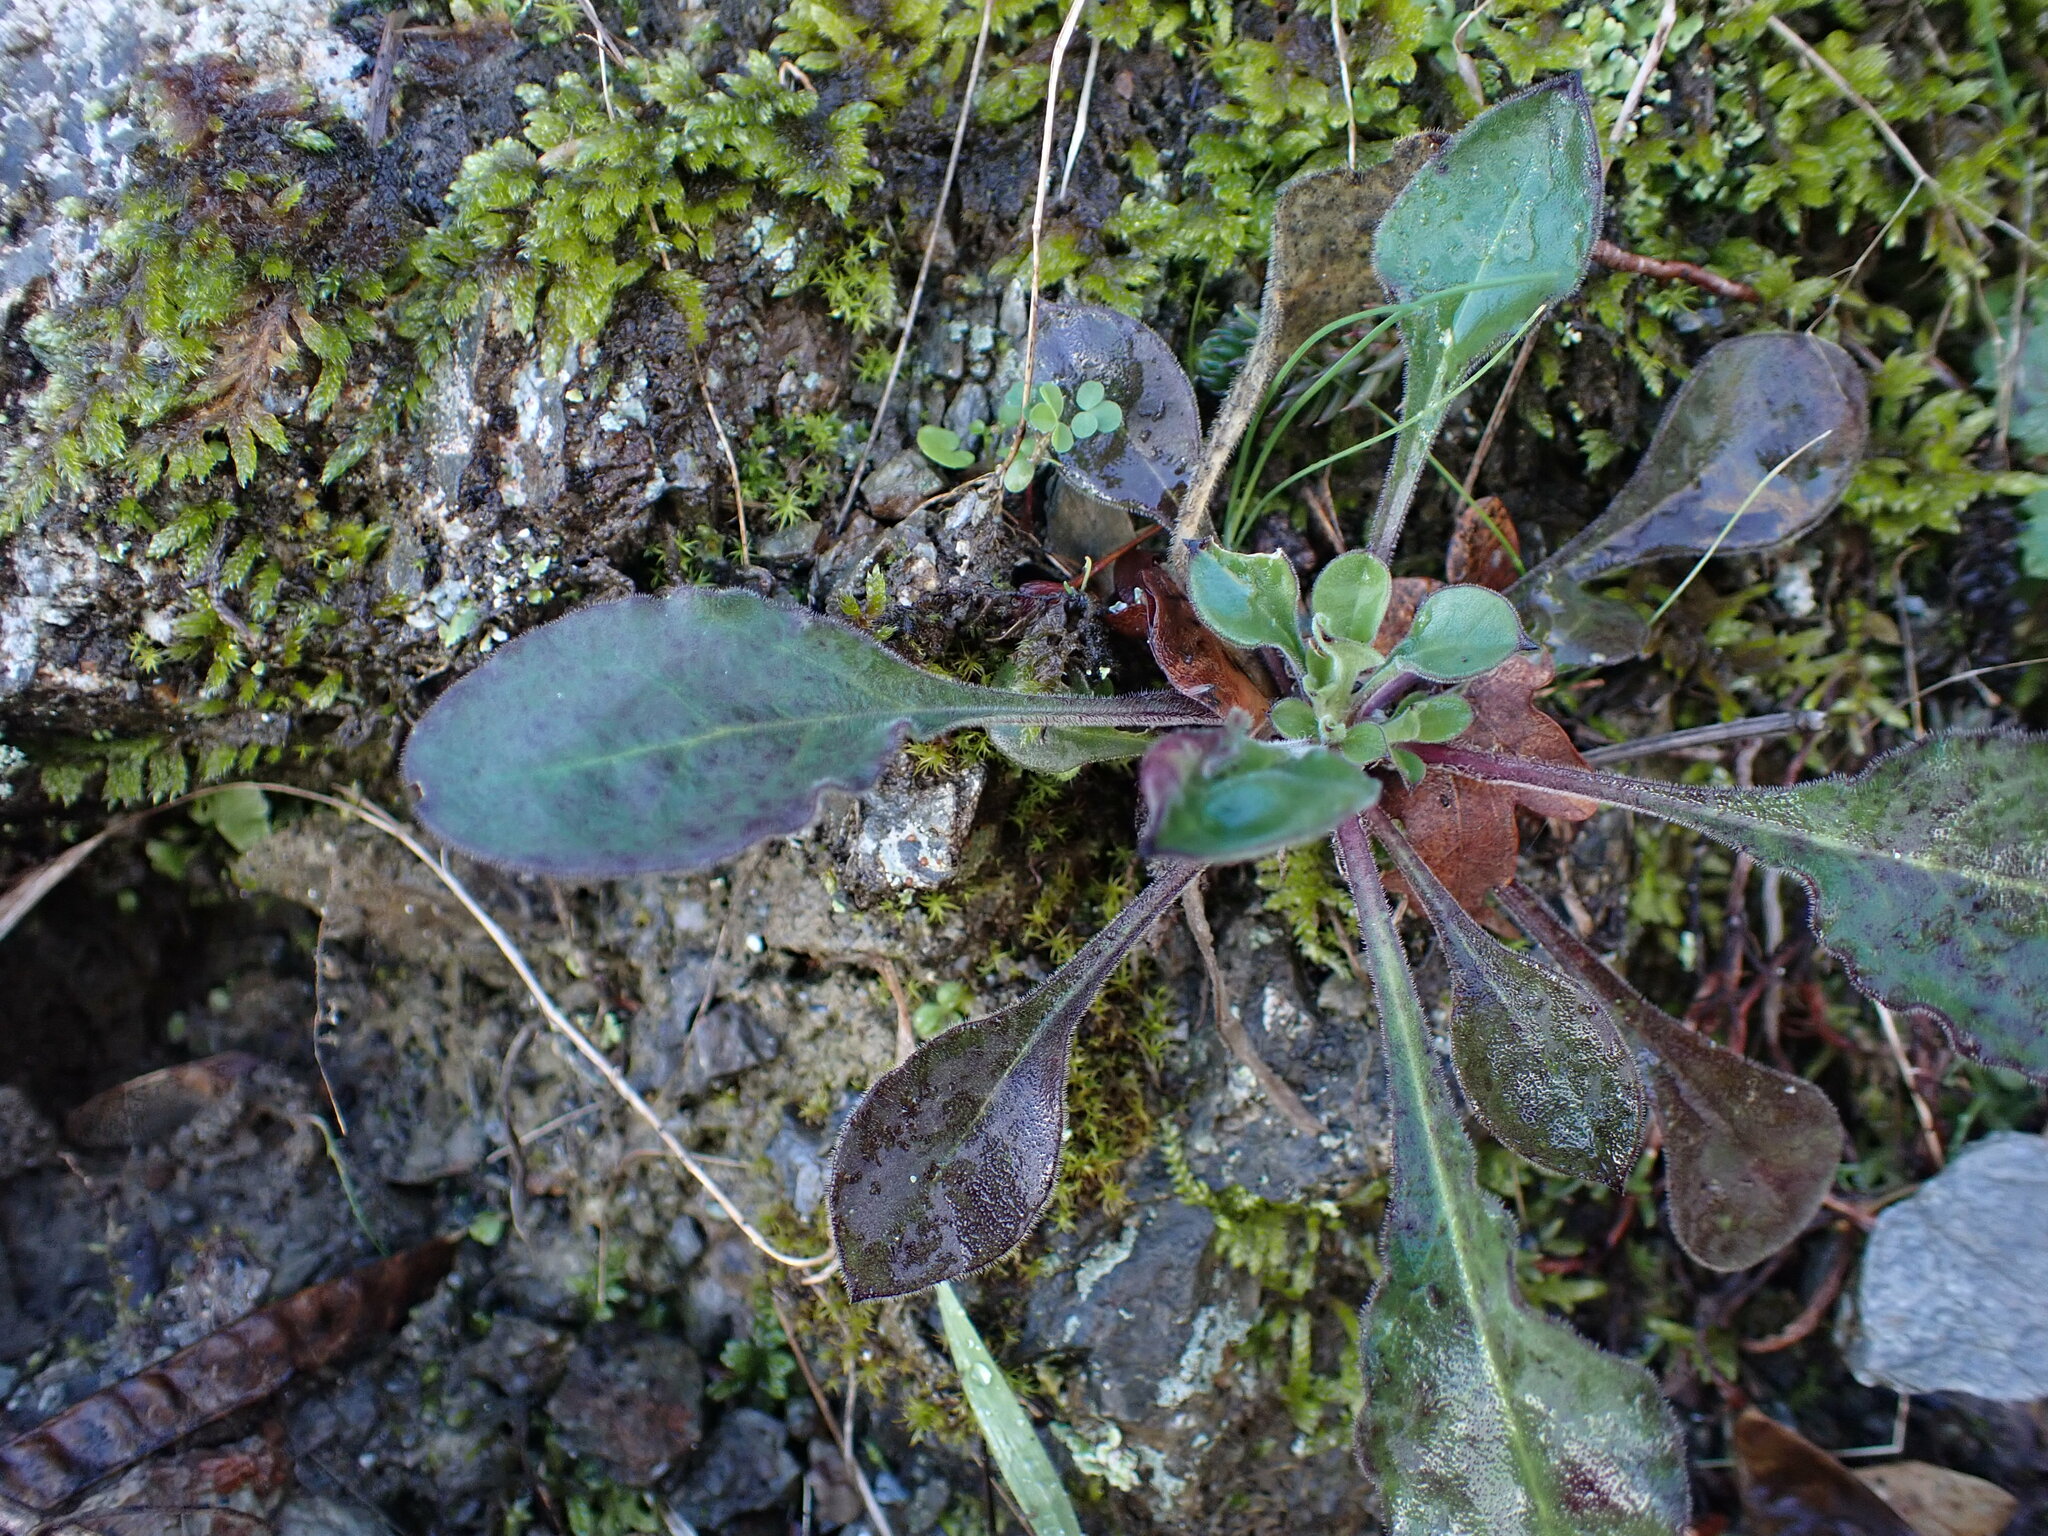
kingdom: Plantae
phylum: Tracheophyta
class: Magnoliopsida
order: Caryophyllales
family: Caryophyllaceae
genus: Silene
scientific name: Silene italica
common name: Italian catchfly
